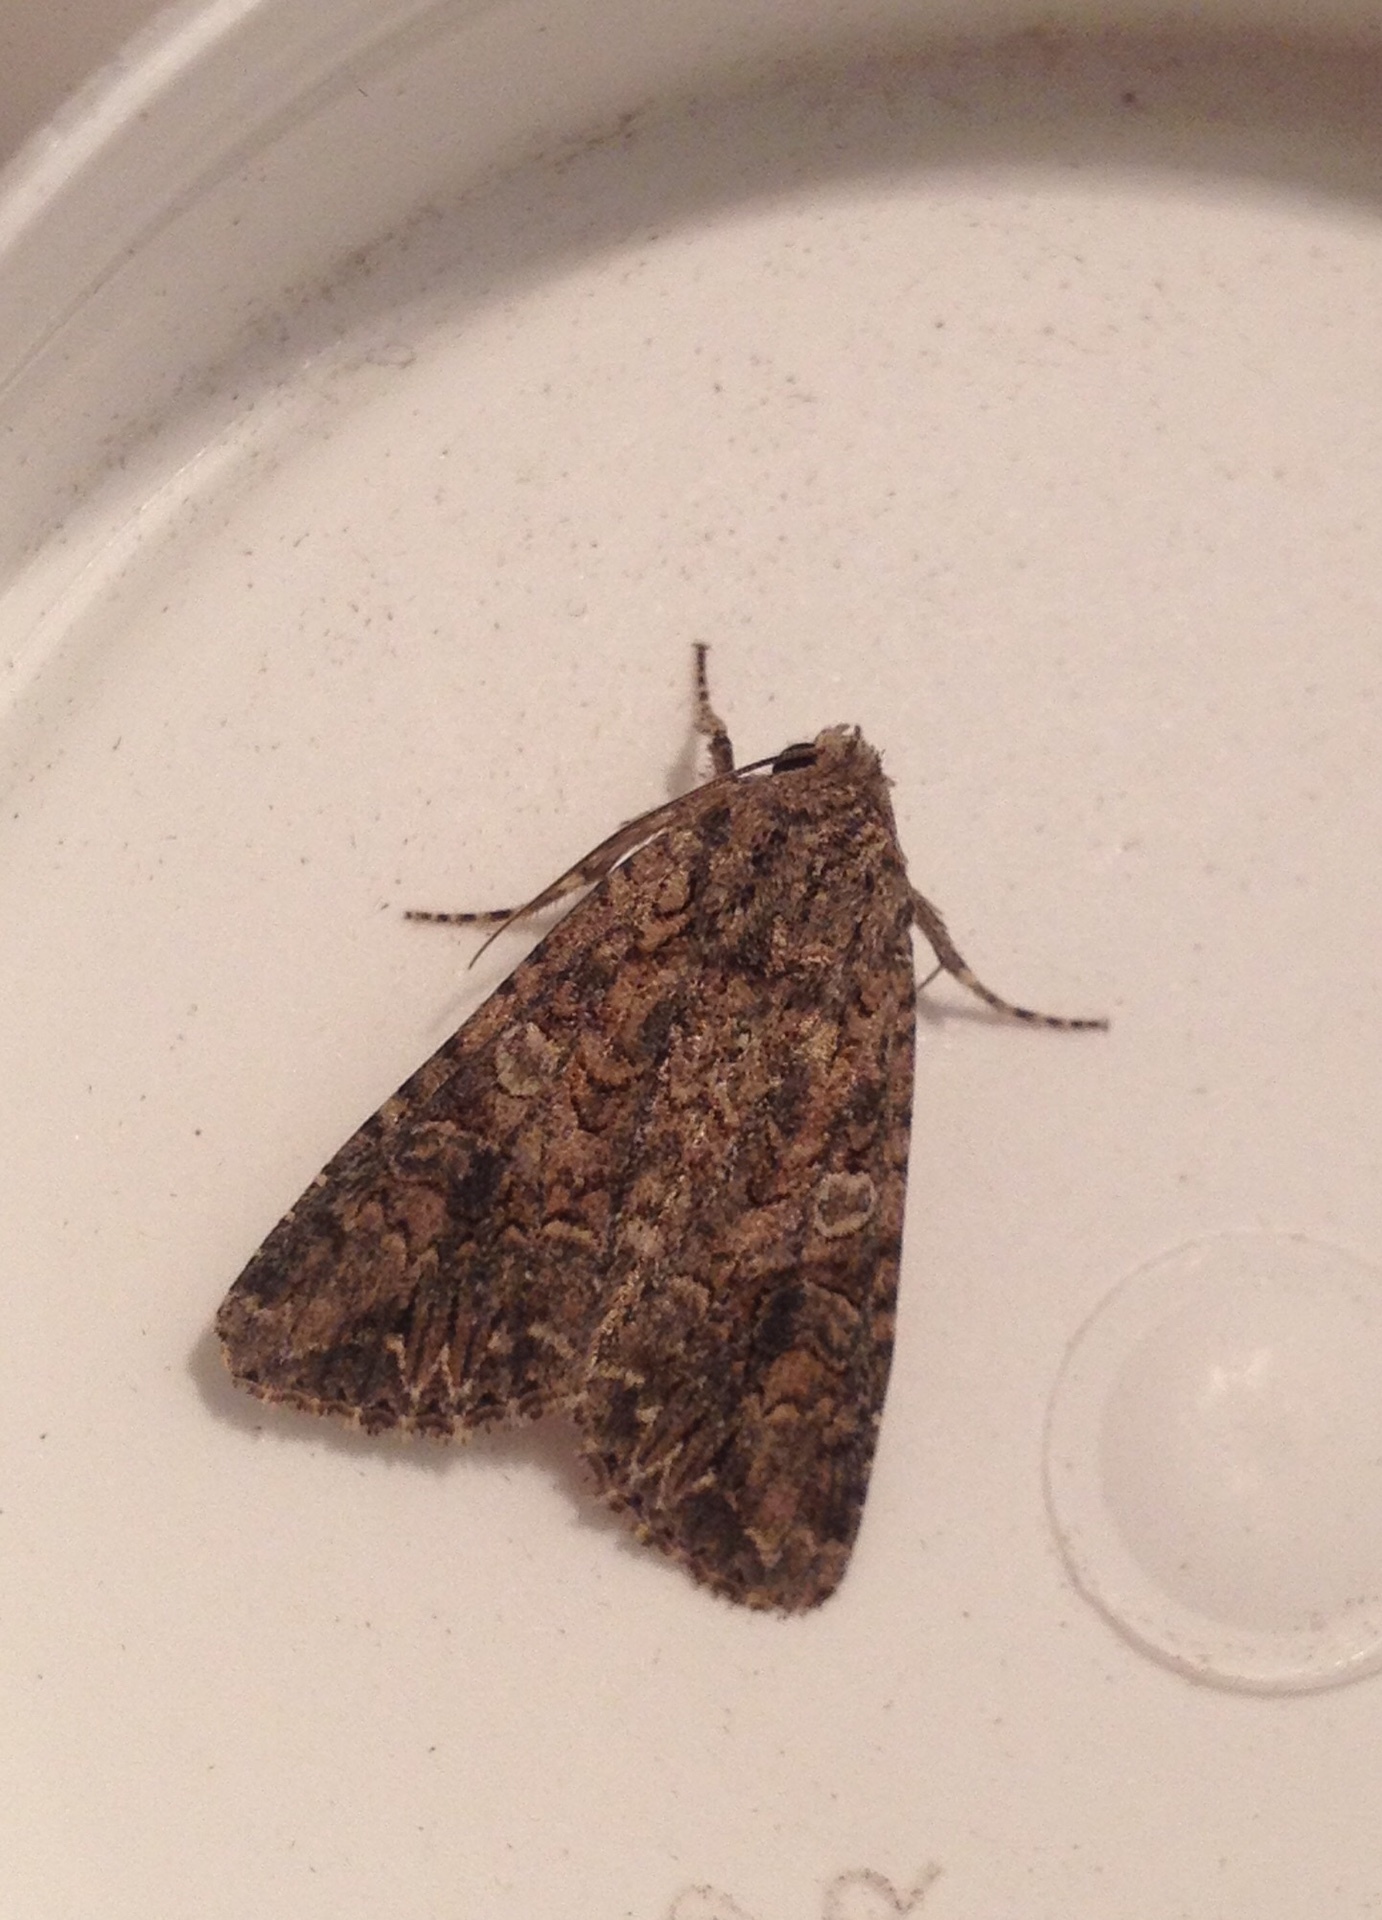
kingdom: Animalia
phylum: Arthropoda
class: Insecta
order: Lepidoptera
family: Noctuidae
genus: Anarta
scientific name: Anarta trifolii
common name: Clover cutworm moth
